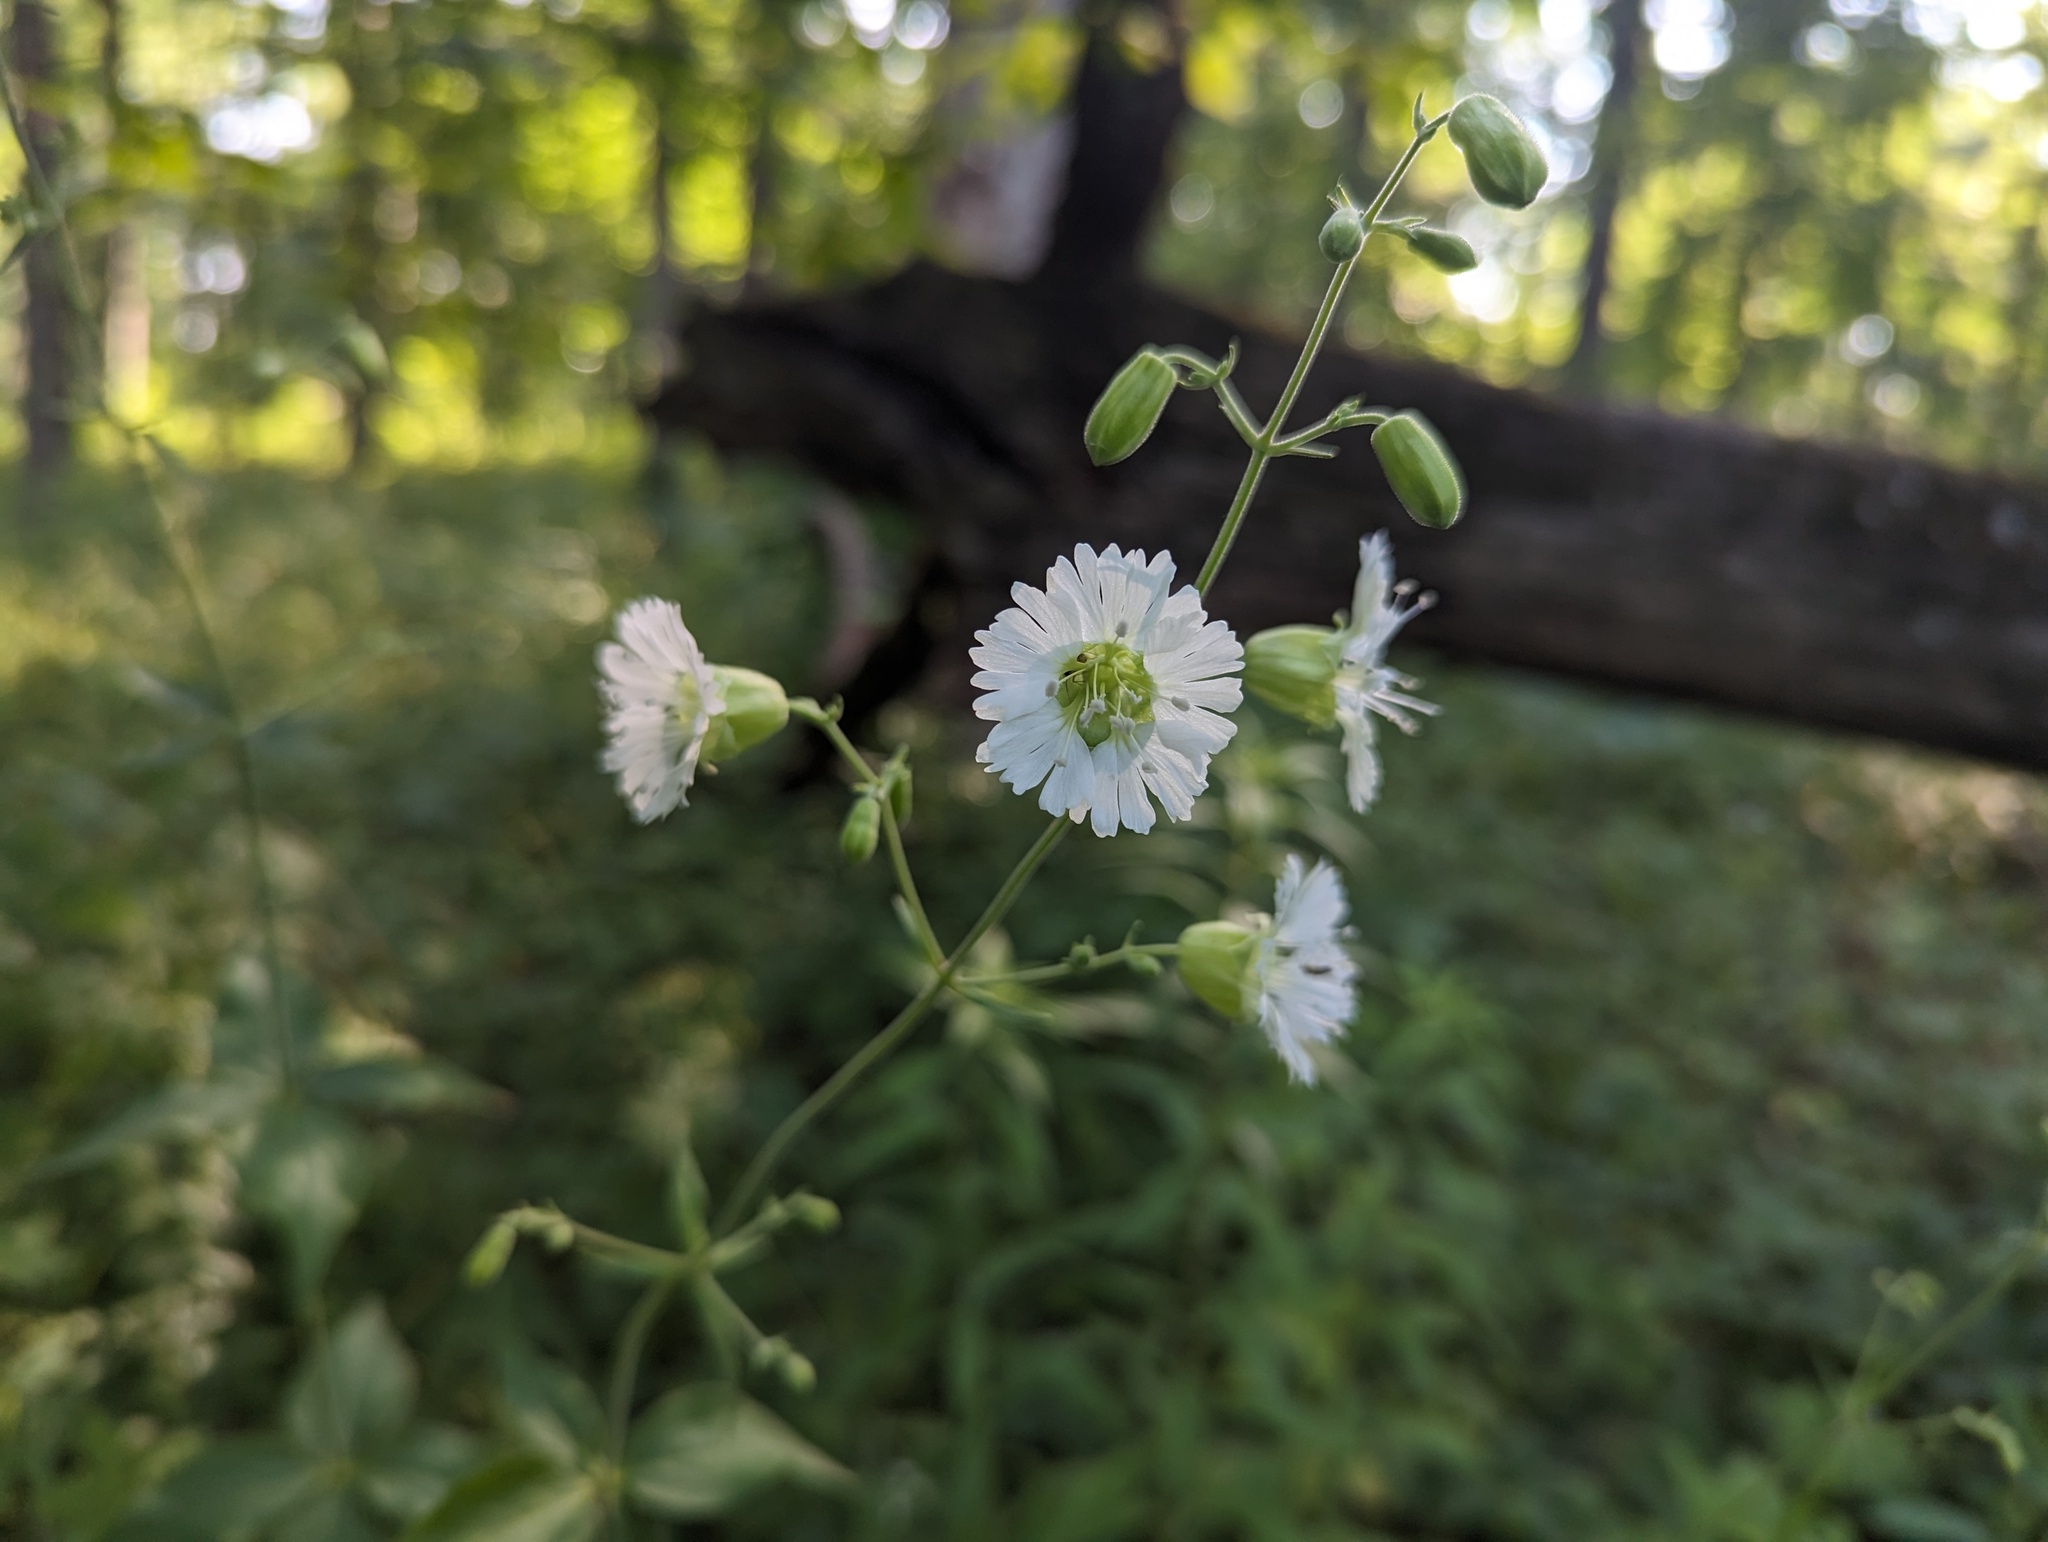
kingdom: Plantae
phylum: Tracheophyta
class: Magnoliopsida
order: Caryophyllales
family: Caryophyllaceae
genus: Silene
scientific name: Silene stellata
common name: Starry campion
